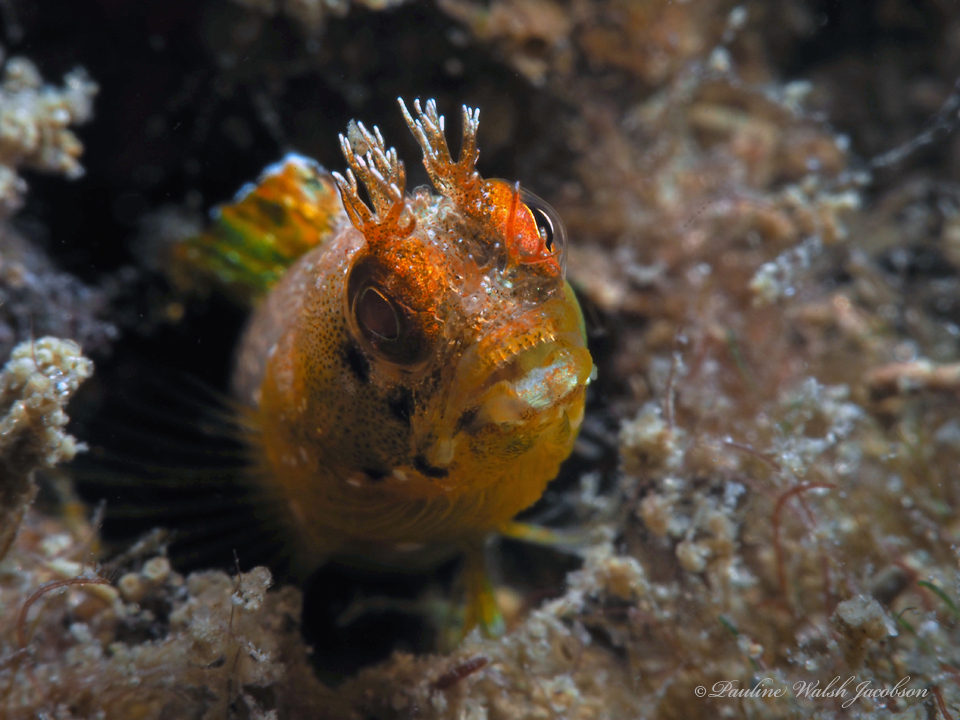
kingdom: Animalia
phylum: Chordata
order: Perciformes
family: Chaenopsidae
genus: Acanthemblemaria
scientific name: Acanthemblemaria aspera
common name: Roughhead blenny
